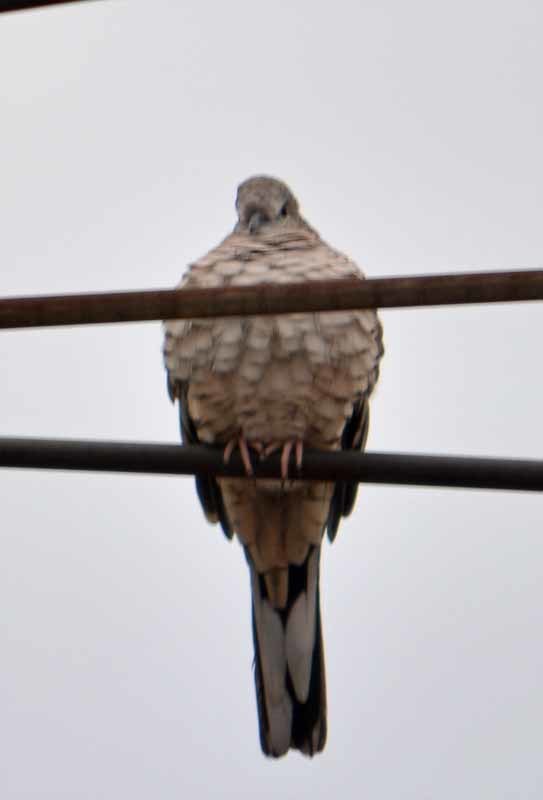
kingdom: Animalia
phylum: Chordata
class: Aves
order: Columbiformes
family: Columbidae
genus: Columbina
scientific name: Columbina inca
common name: Inca dove
